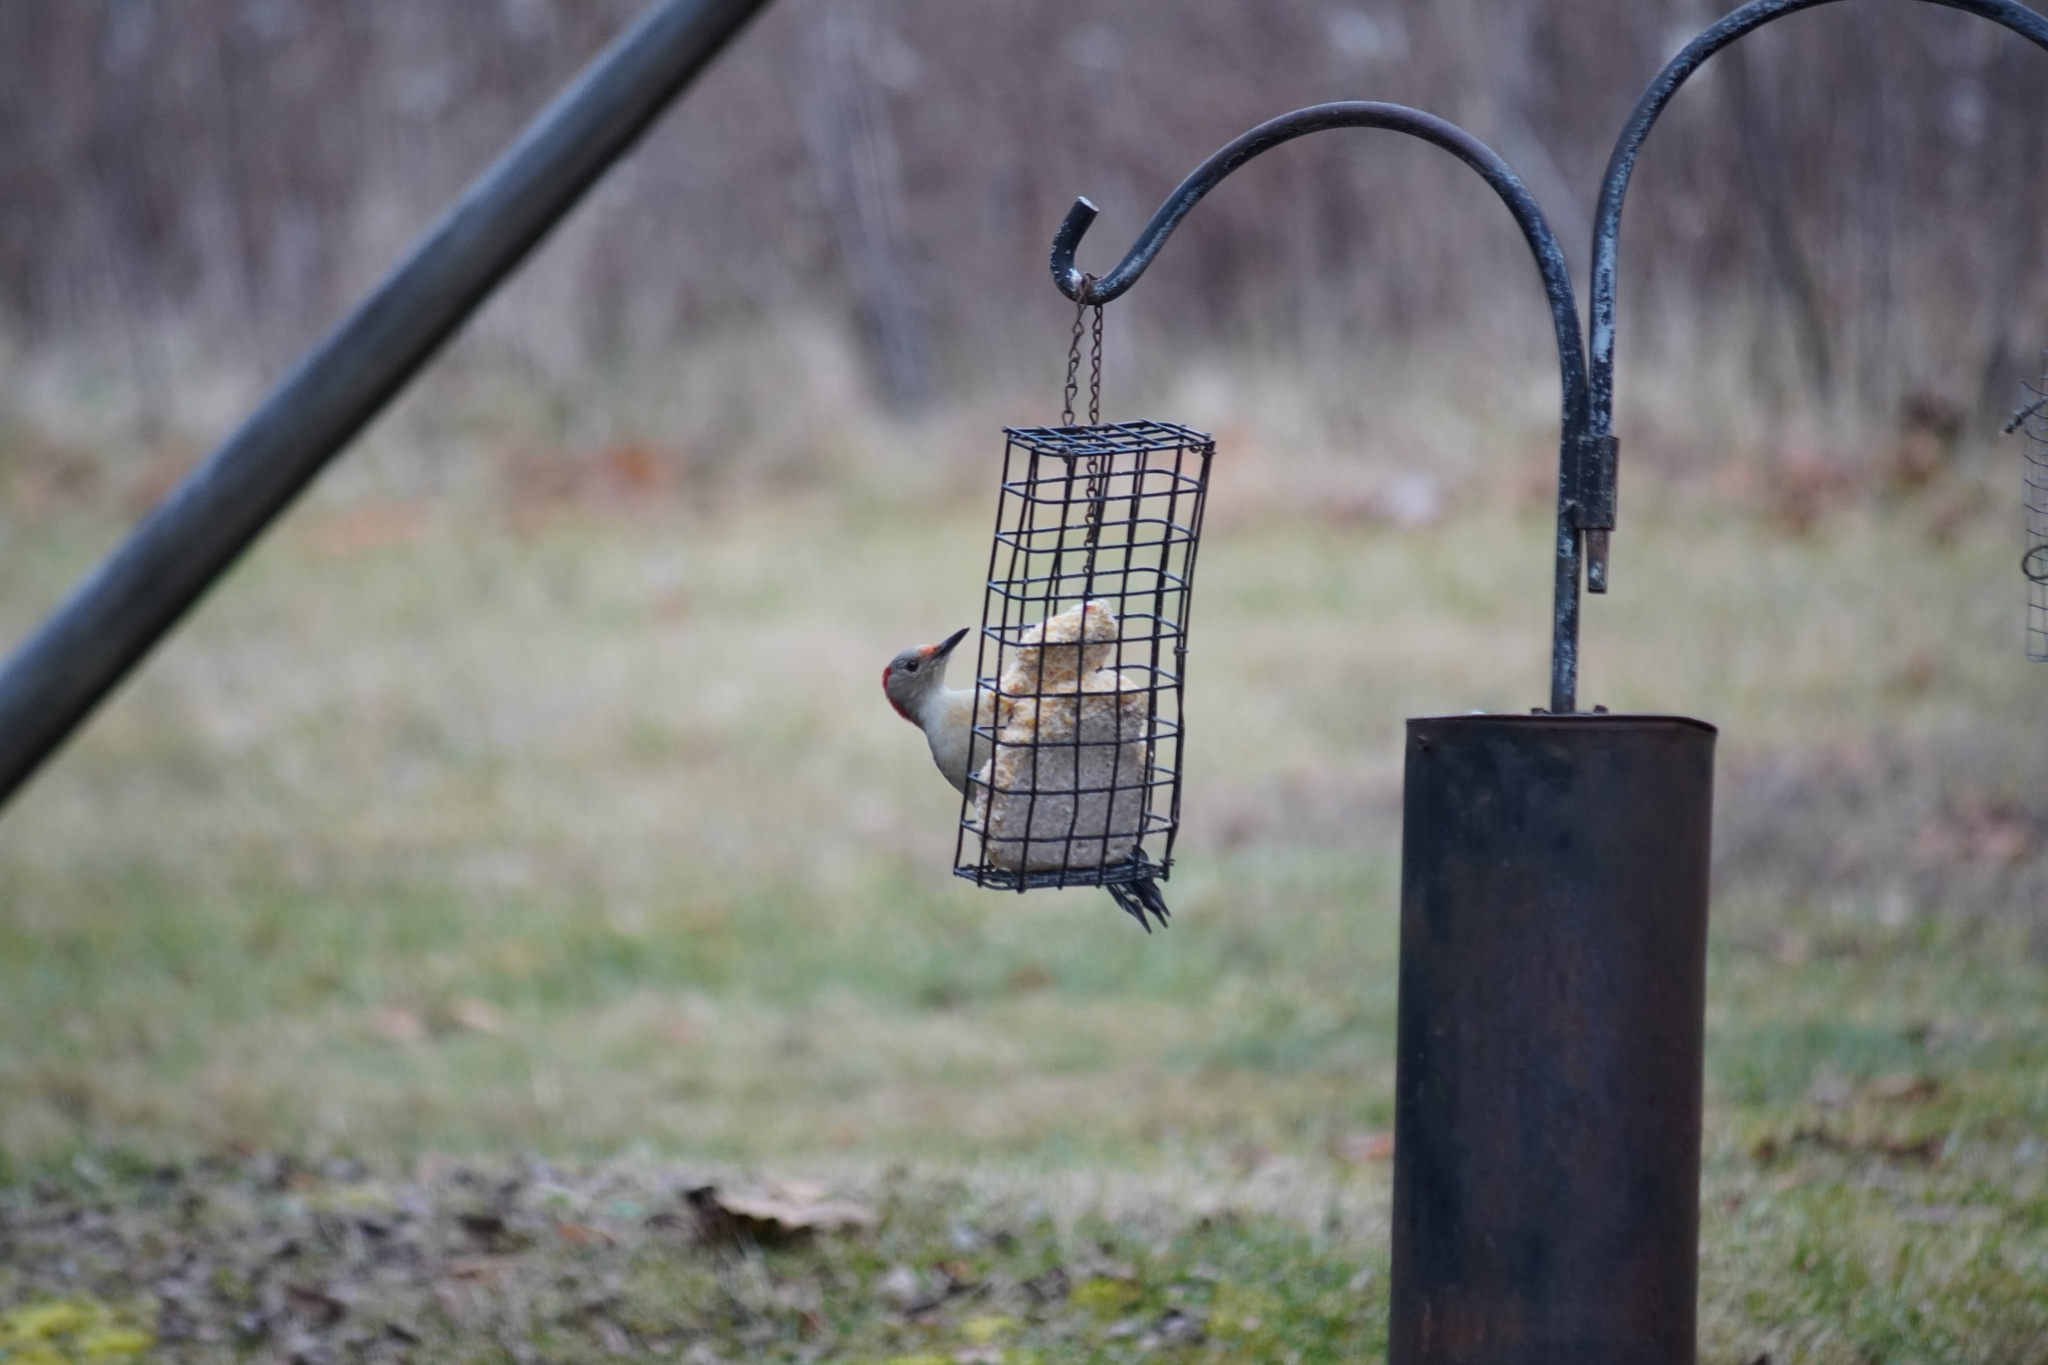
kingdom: Animalia
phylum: Chordata
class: Aves
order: Piciformes
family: Picidae
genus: Melanerpes
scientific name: Melanerpes carolinus
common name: Red-bellied woodpecker
